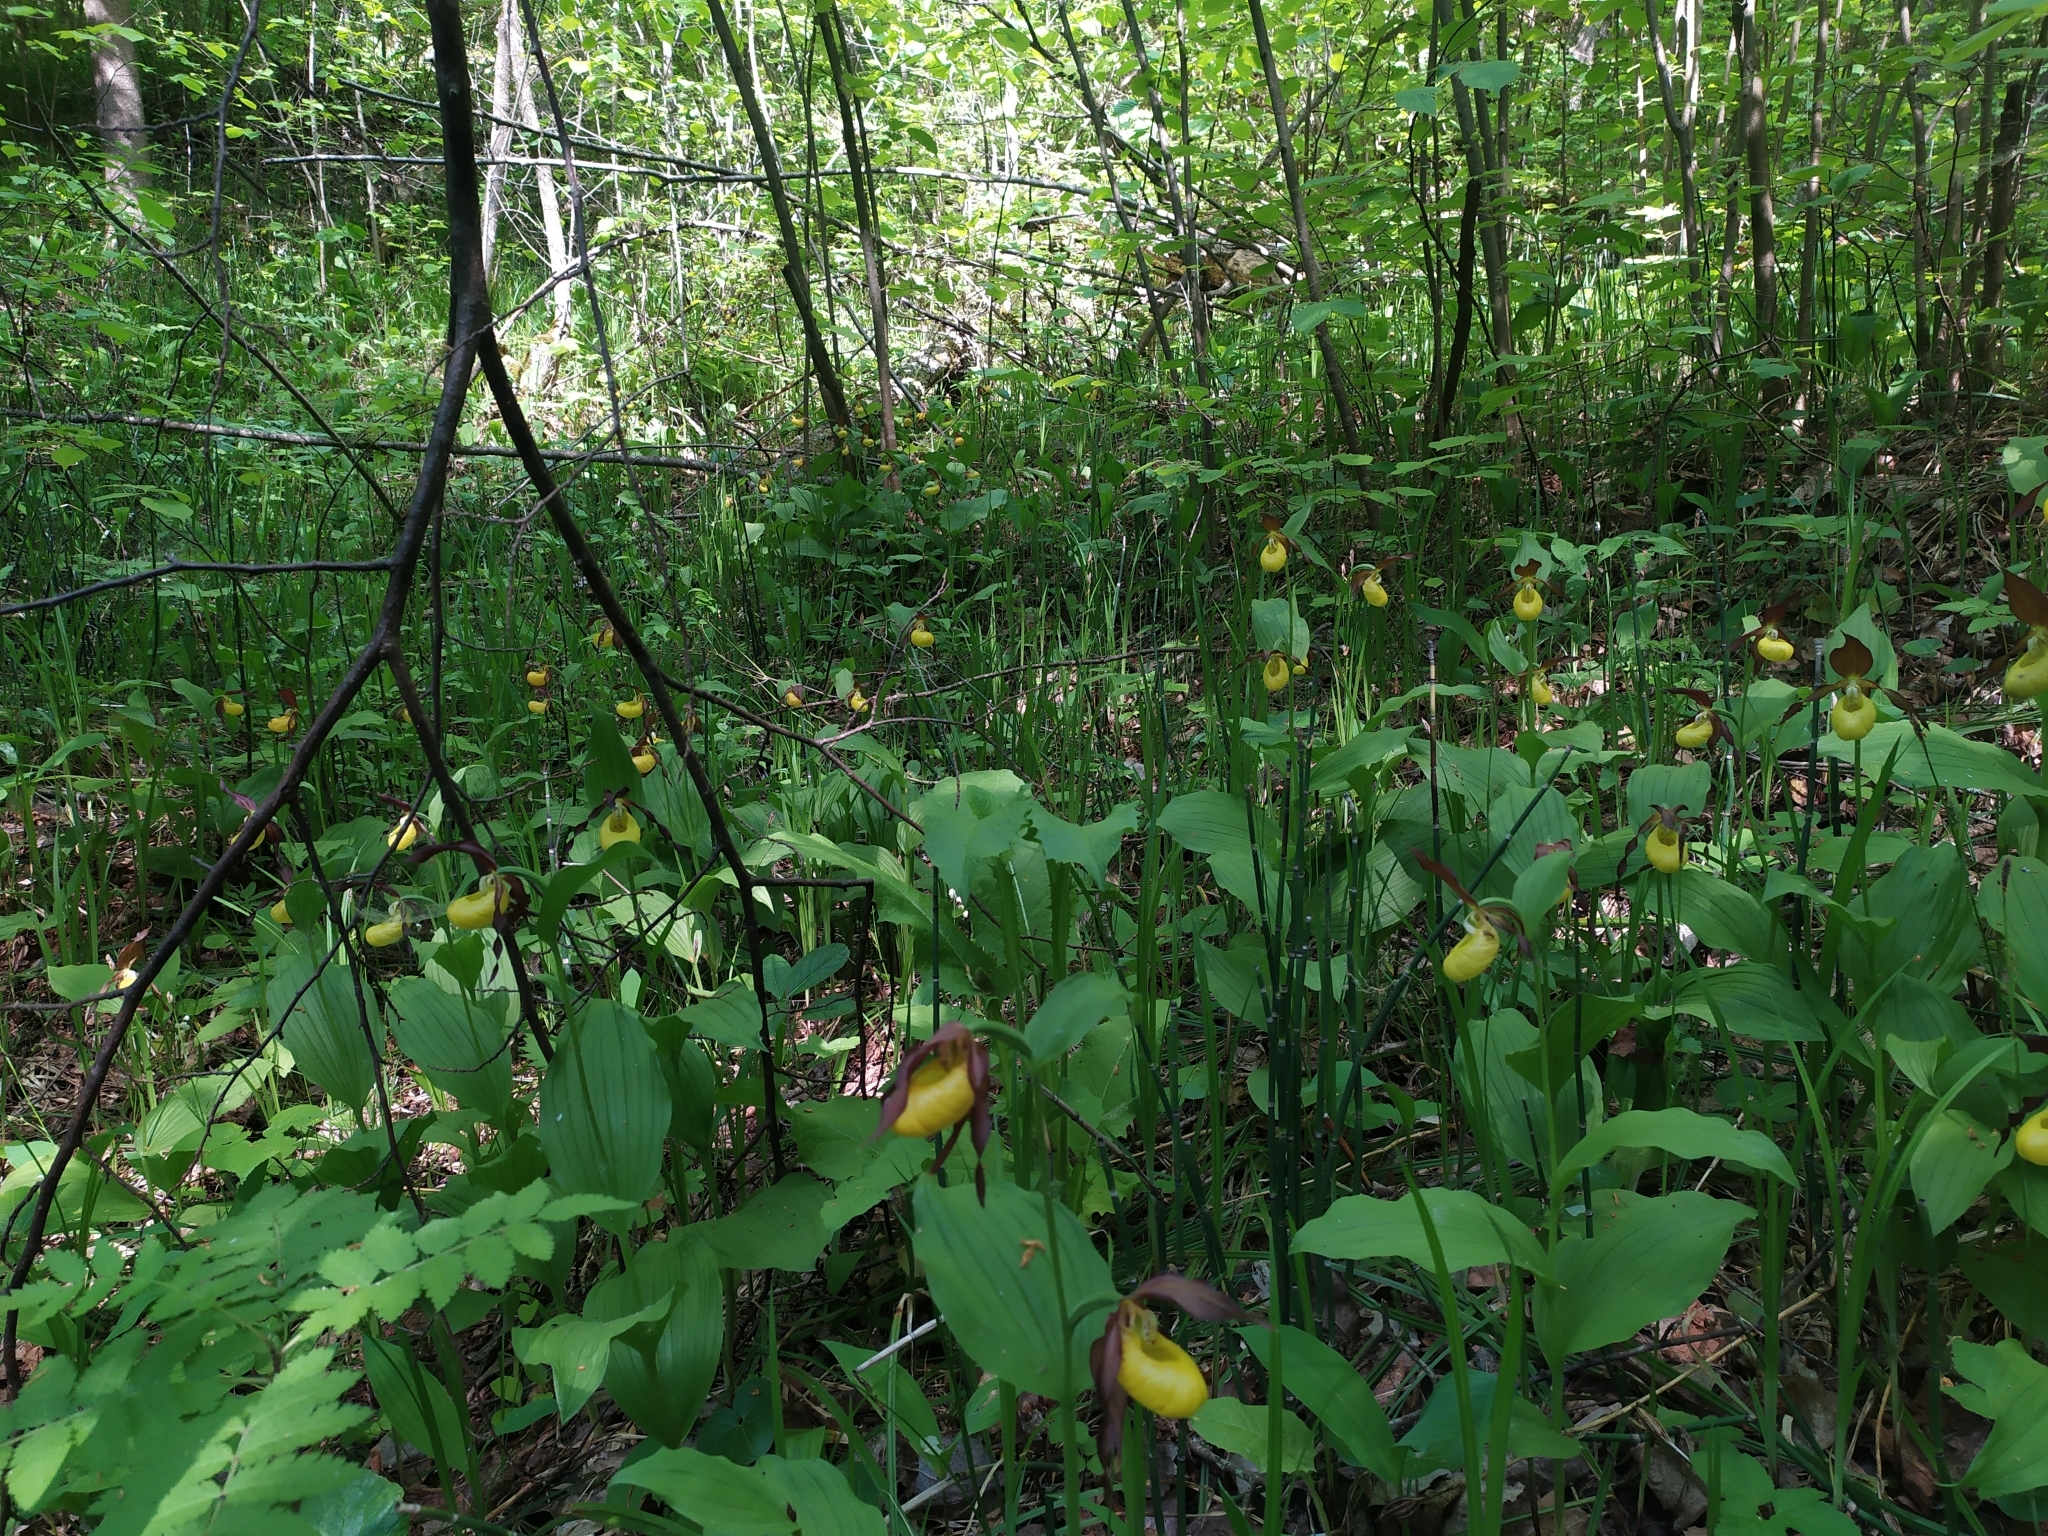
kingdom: Plantae
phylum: Tracheophyta
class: Liliopsida
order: Asparagales
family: Orchidaceae
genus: Cypripedium
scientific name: Cypripedium calceolus
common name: Lady's-slipper
